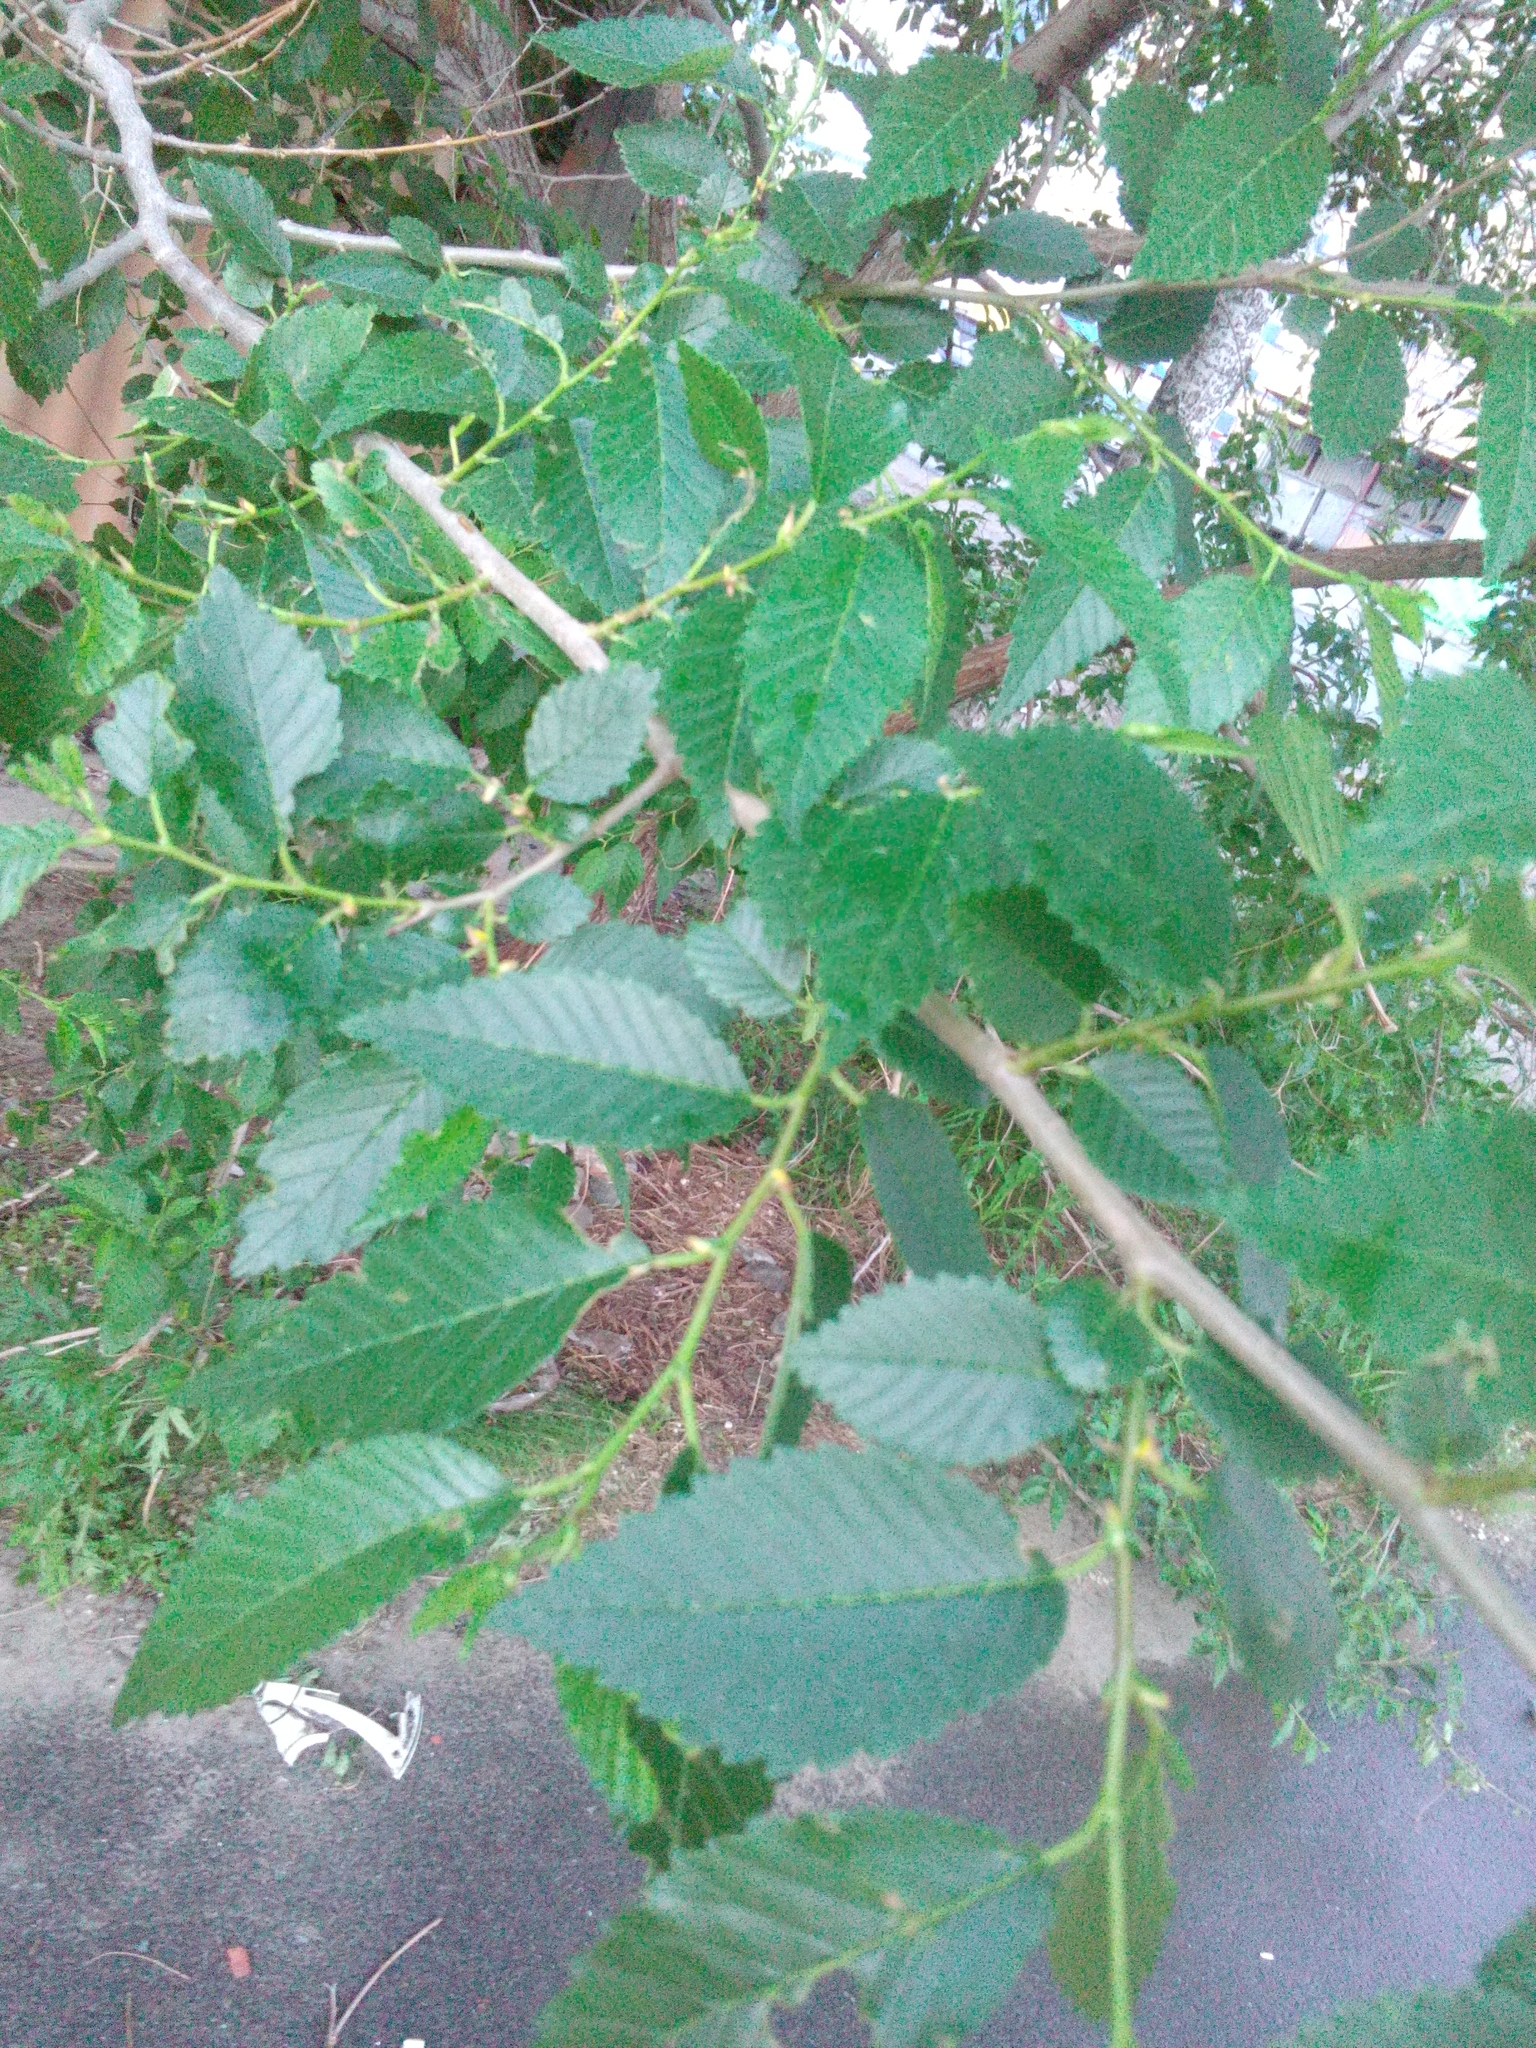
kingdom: Plantae
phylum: Tracheophyta
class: Magnoliopsida
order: Rosales
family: Ulmaceae
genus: Ulmus
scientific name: Ulmus pumila
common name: Siberian elm
